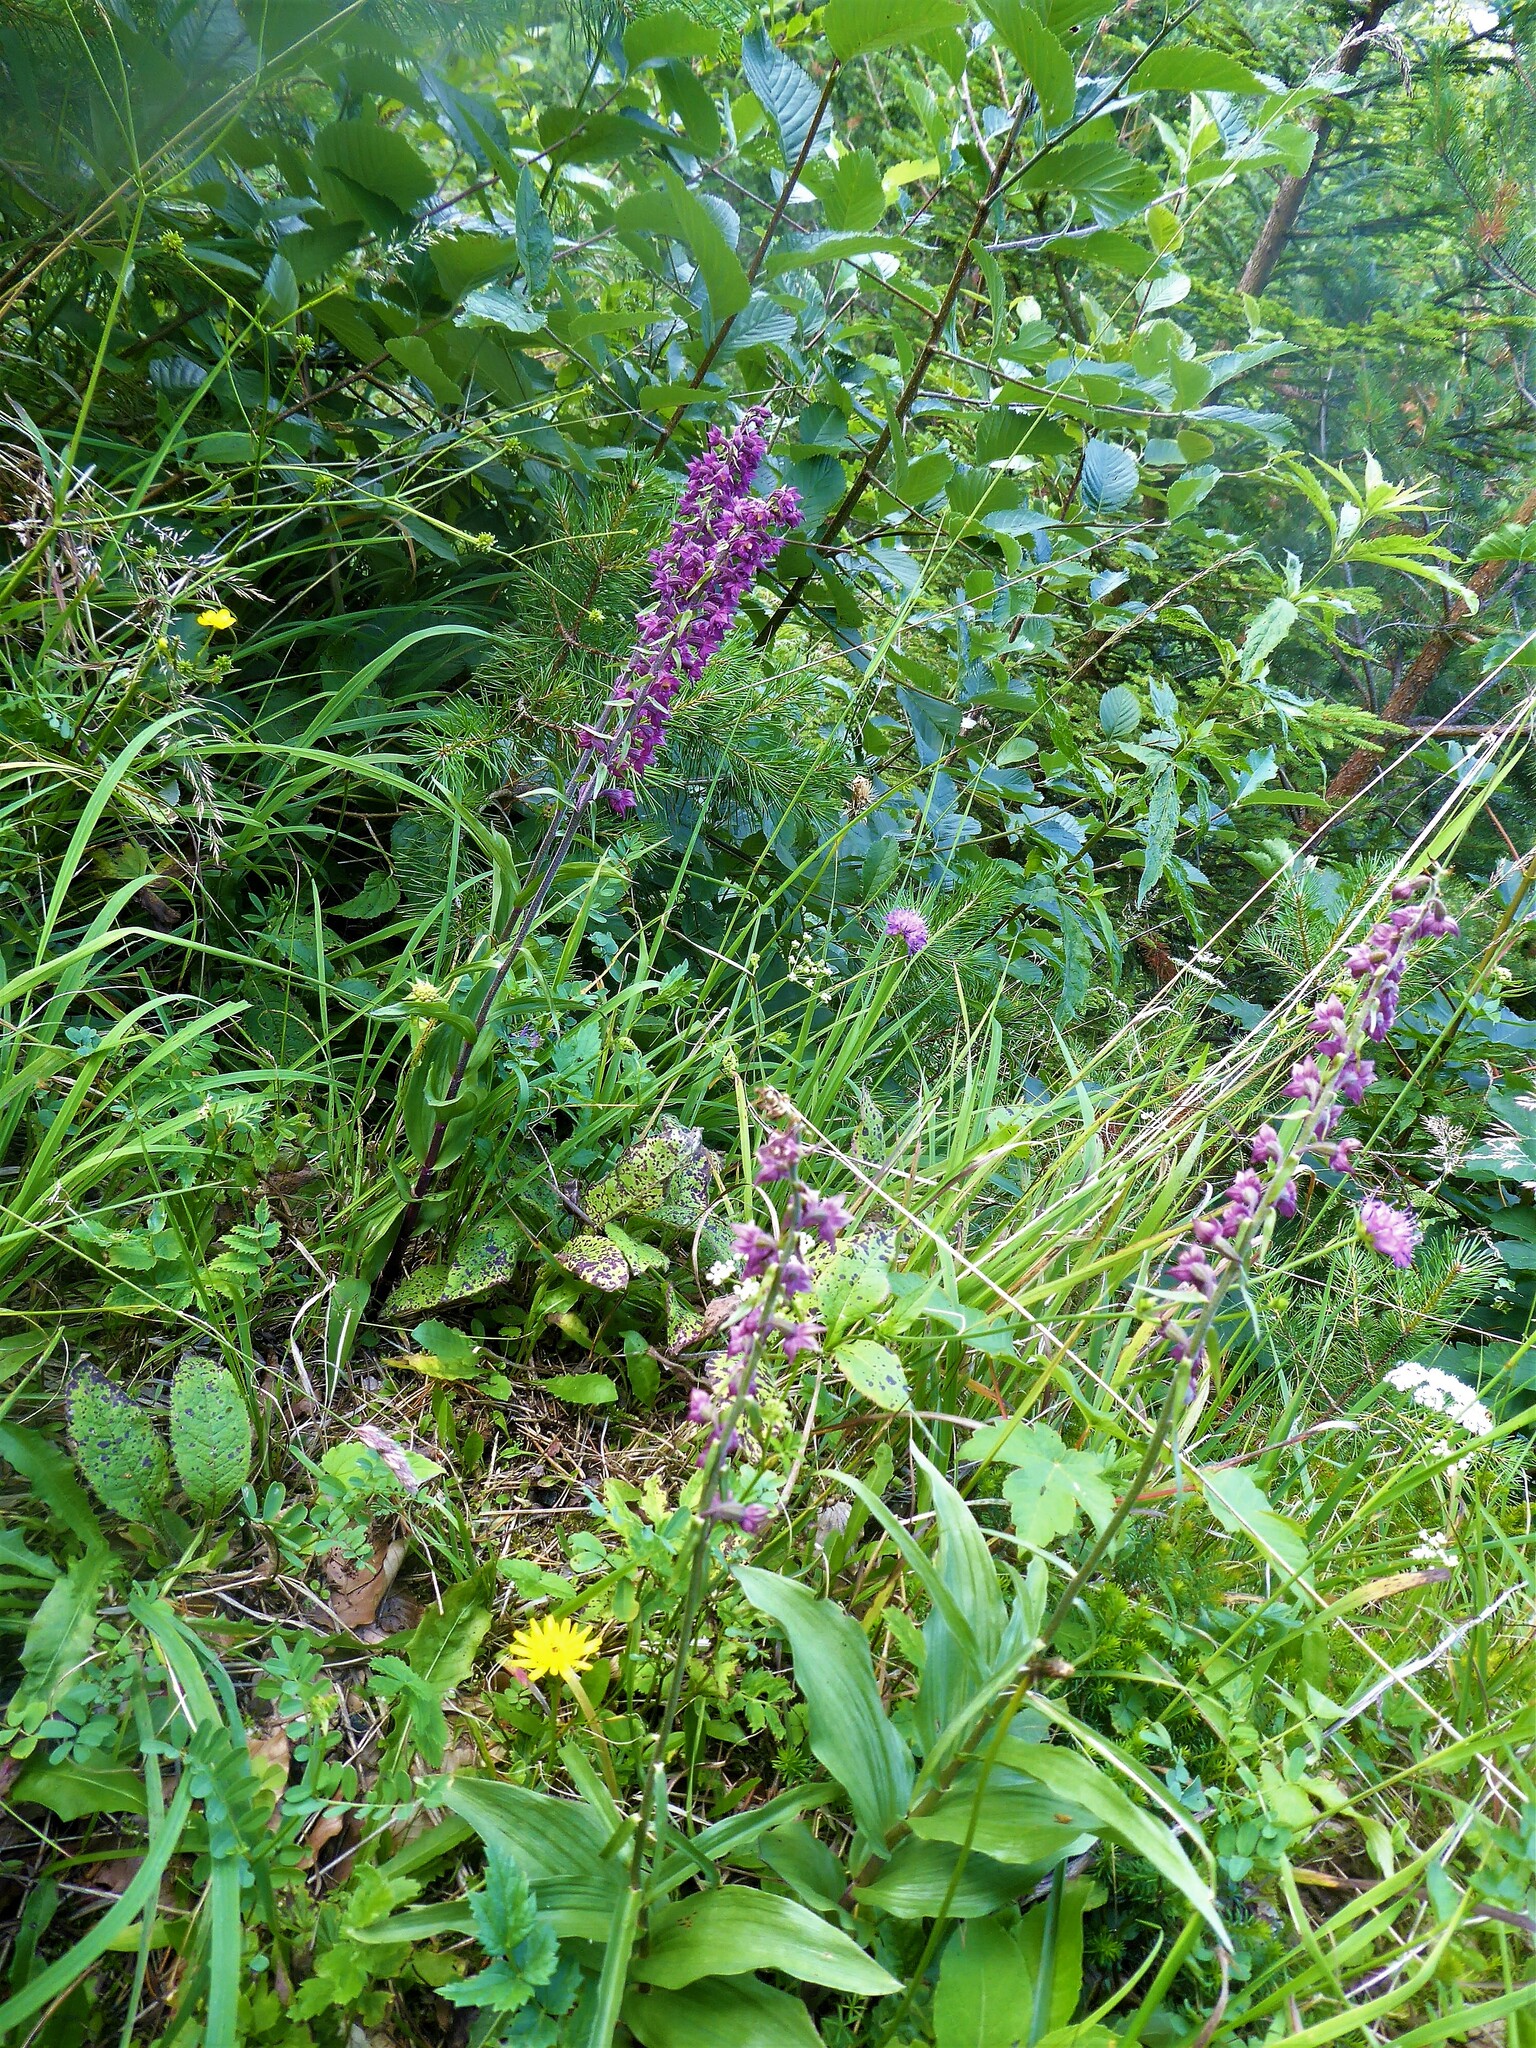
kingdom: Plantae
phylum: Tracheophyta
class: Liliopsida
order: Asparagales
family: Orchidaceae
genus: Epipactis
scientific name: Epipactis atrorubens
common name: Dark-red helleborine
